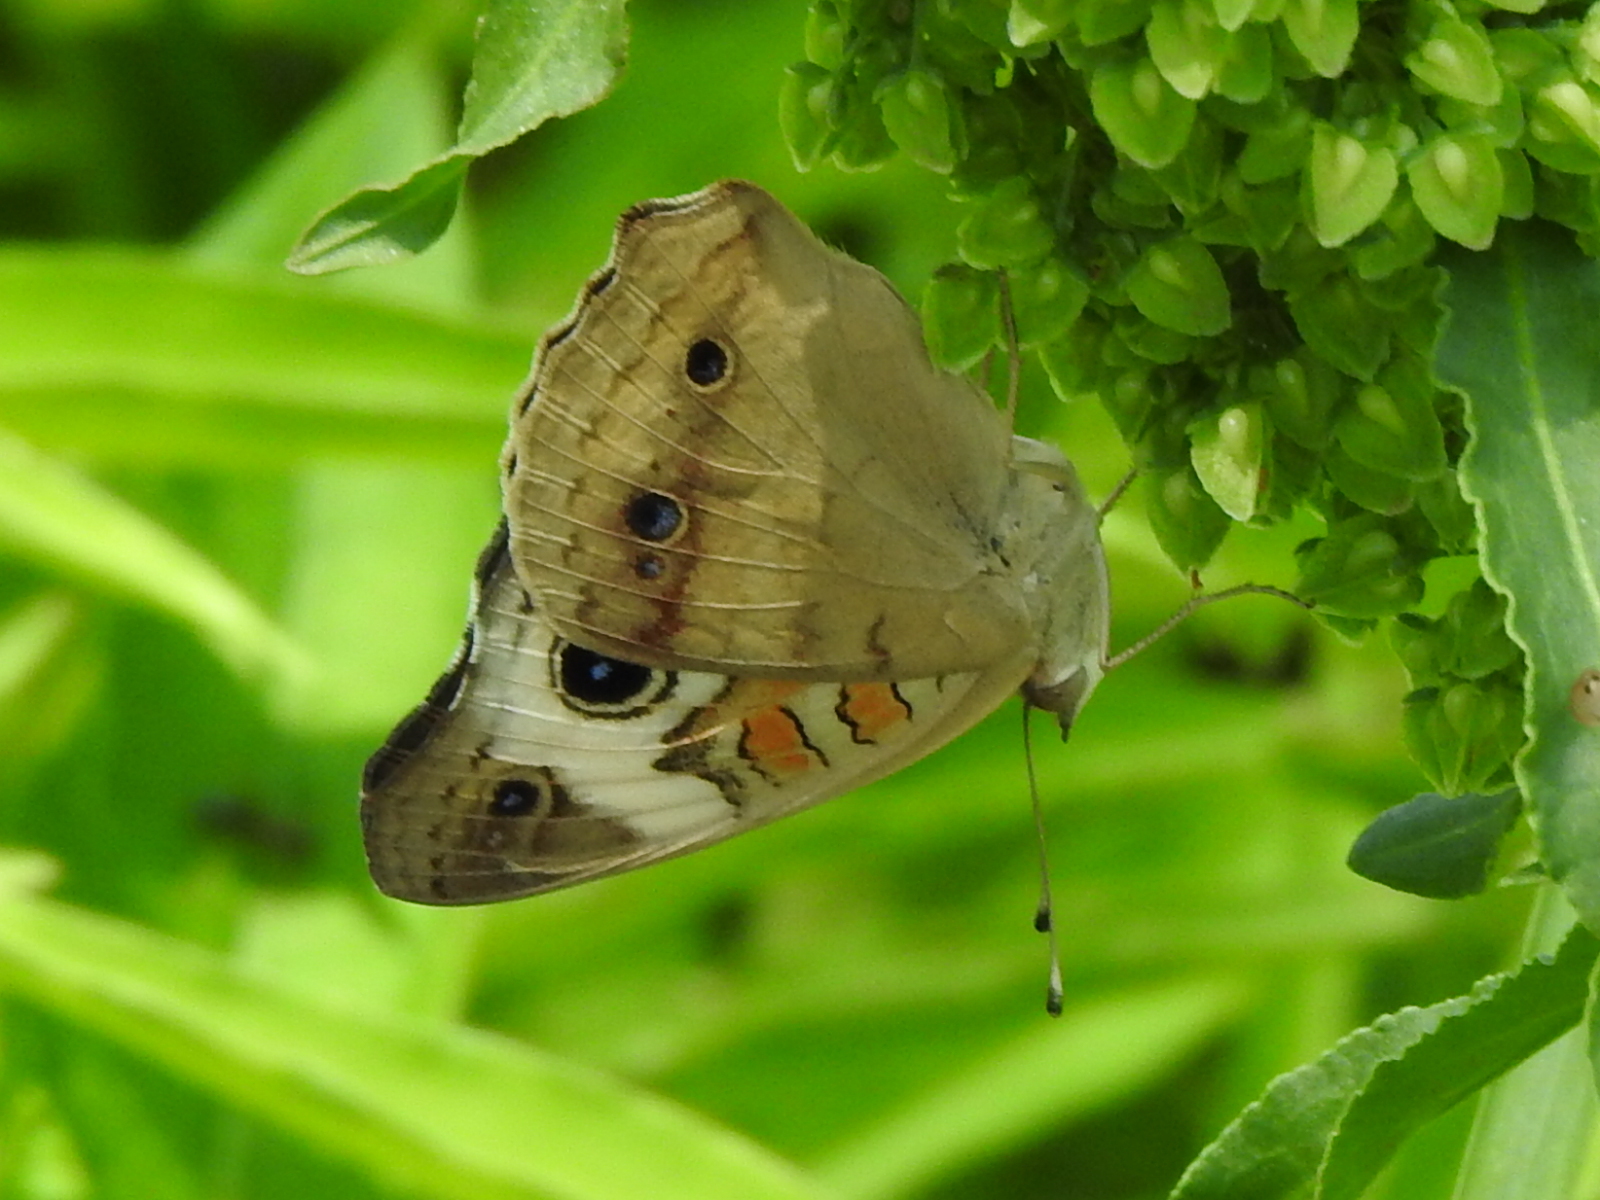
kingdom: Animalia
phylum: Arthropoda
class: Insecta
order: Lepidoptera
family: Nymphalidae
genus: Junonia
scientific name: Junonia coenia
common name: Common buckeye
